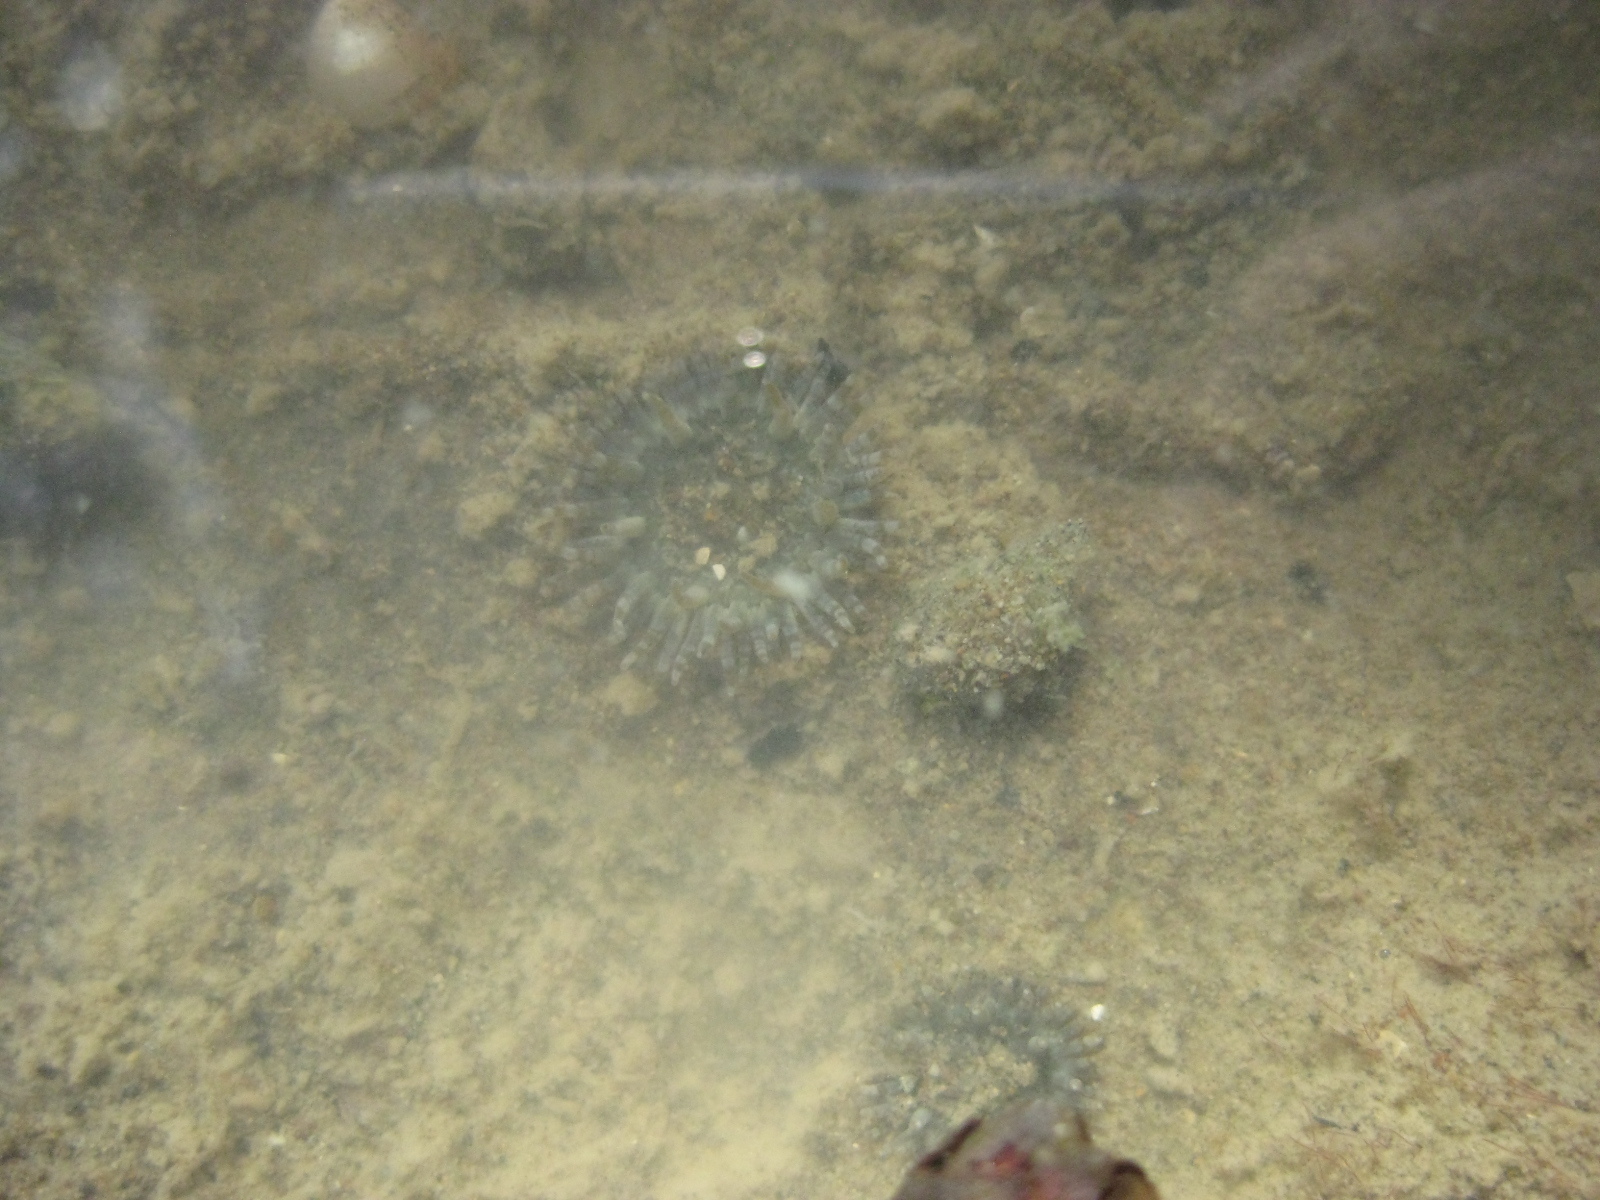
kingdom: Animalia
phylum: Cnidaria
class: Anthozoa
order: Actiniaria
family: Actiniidae
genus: Anthopleura
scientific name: Anthopleura hermaphroditica
